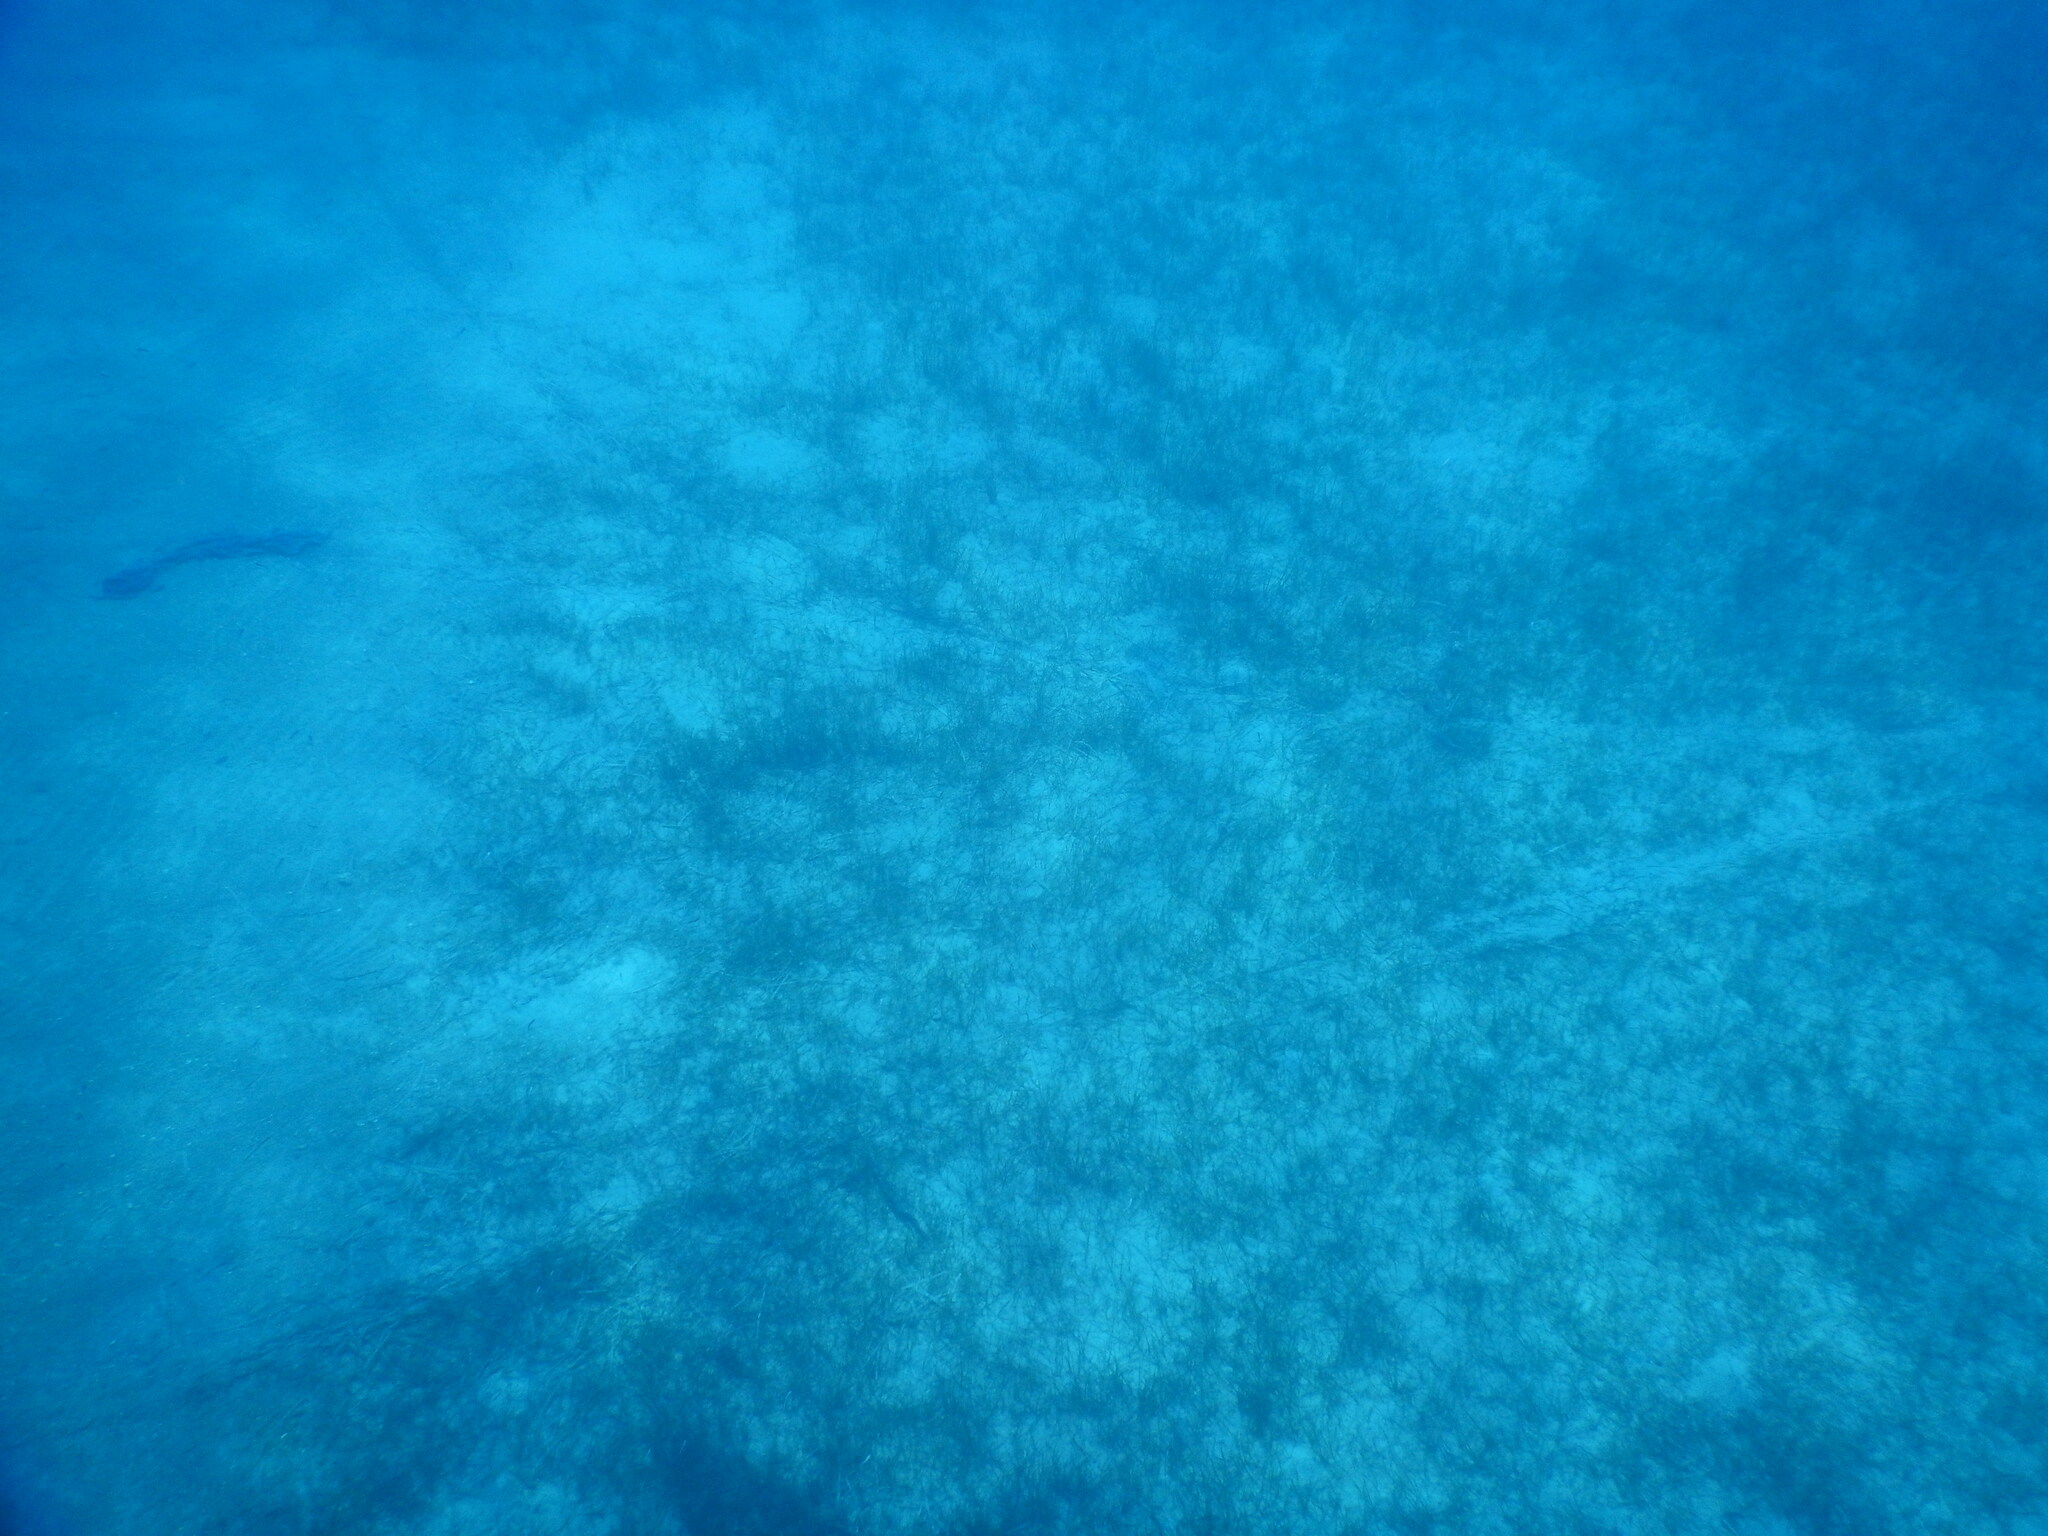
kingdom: Plantae
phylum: Tracheophyta
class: Liliopsida
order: Alismatales
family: Cymodoceaceae
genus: Cymodocea
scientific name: Cymodocea nodosa
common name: Slender seagrass
